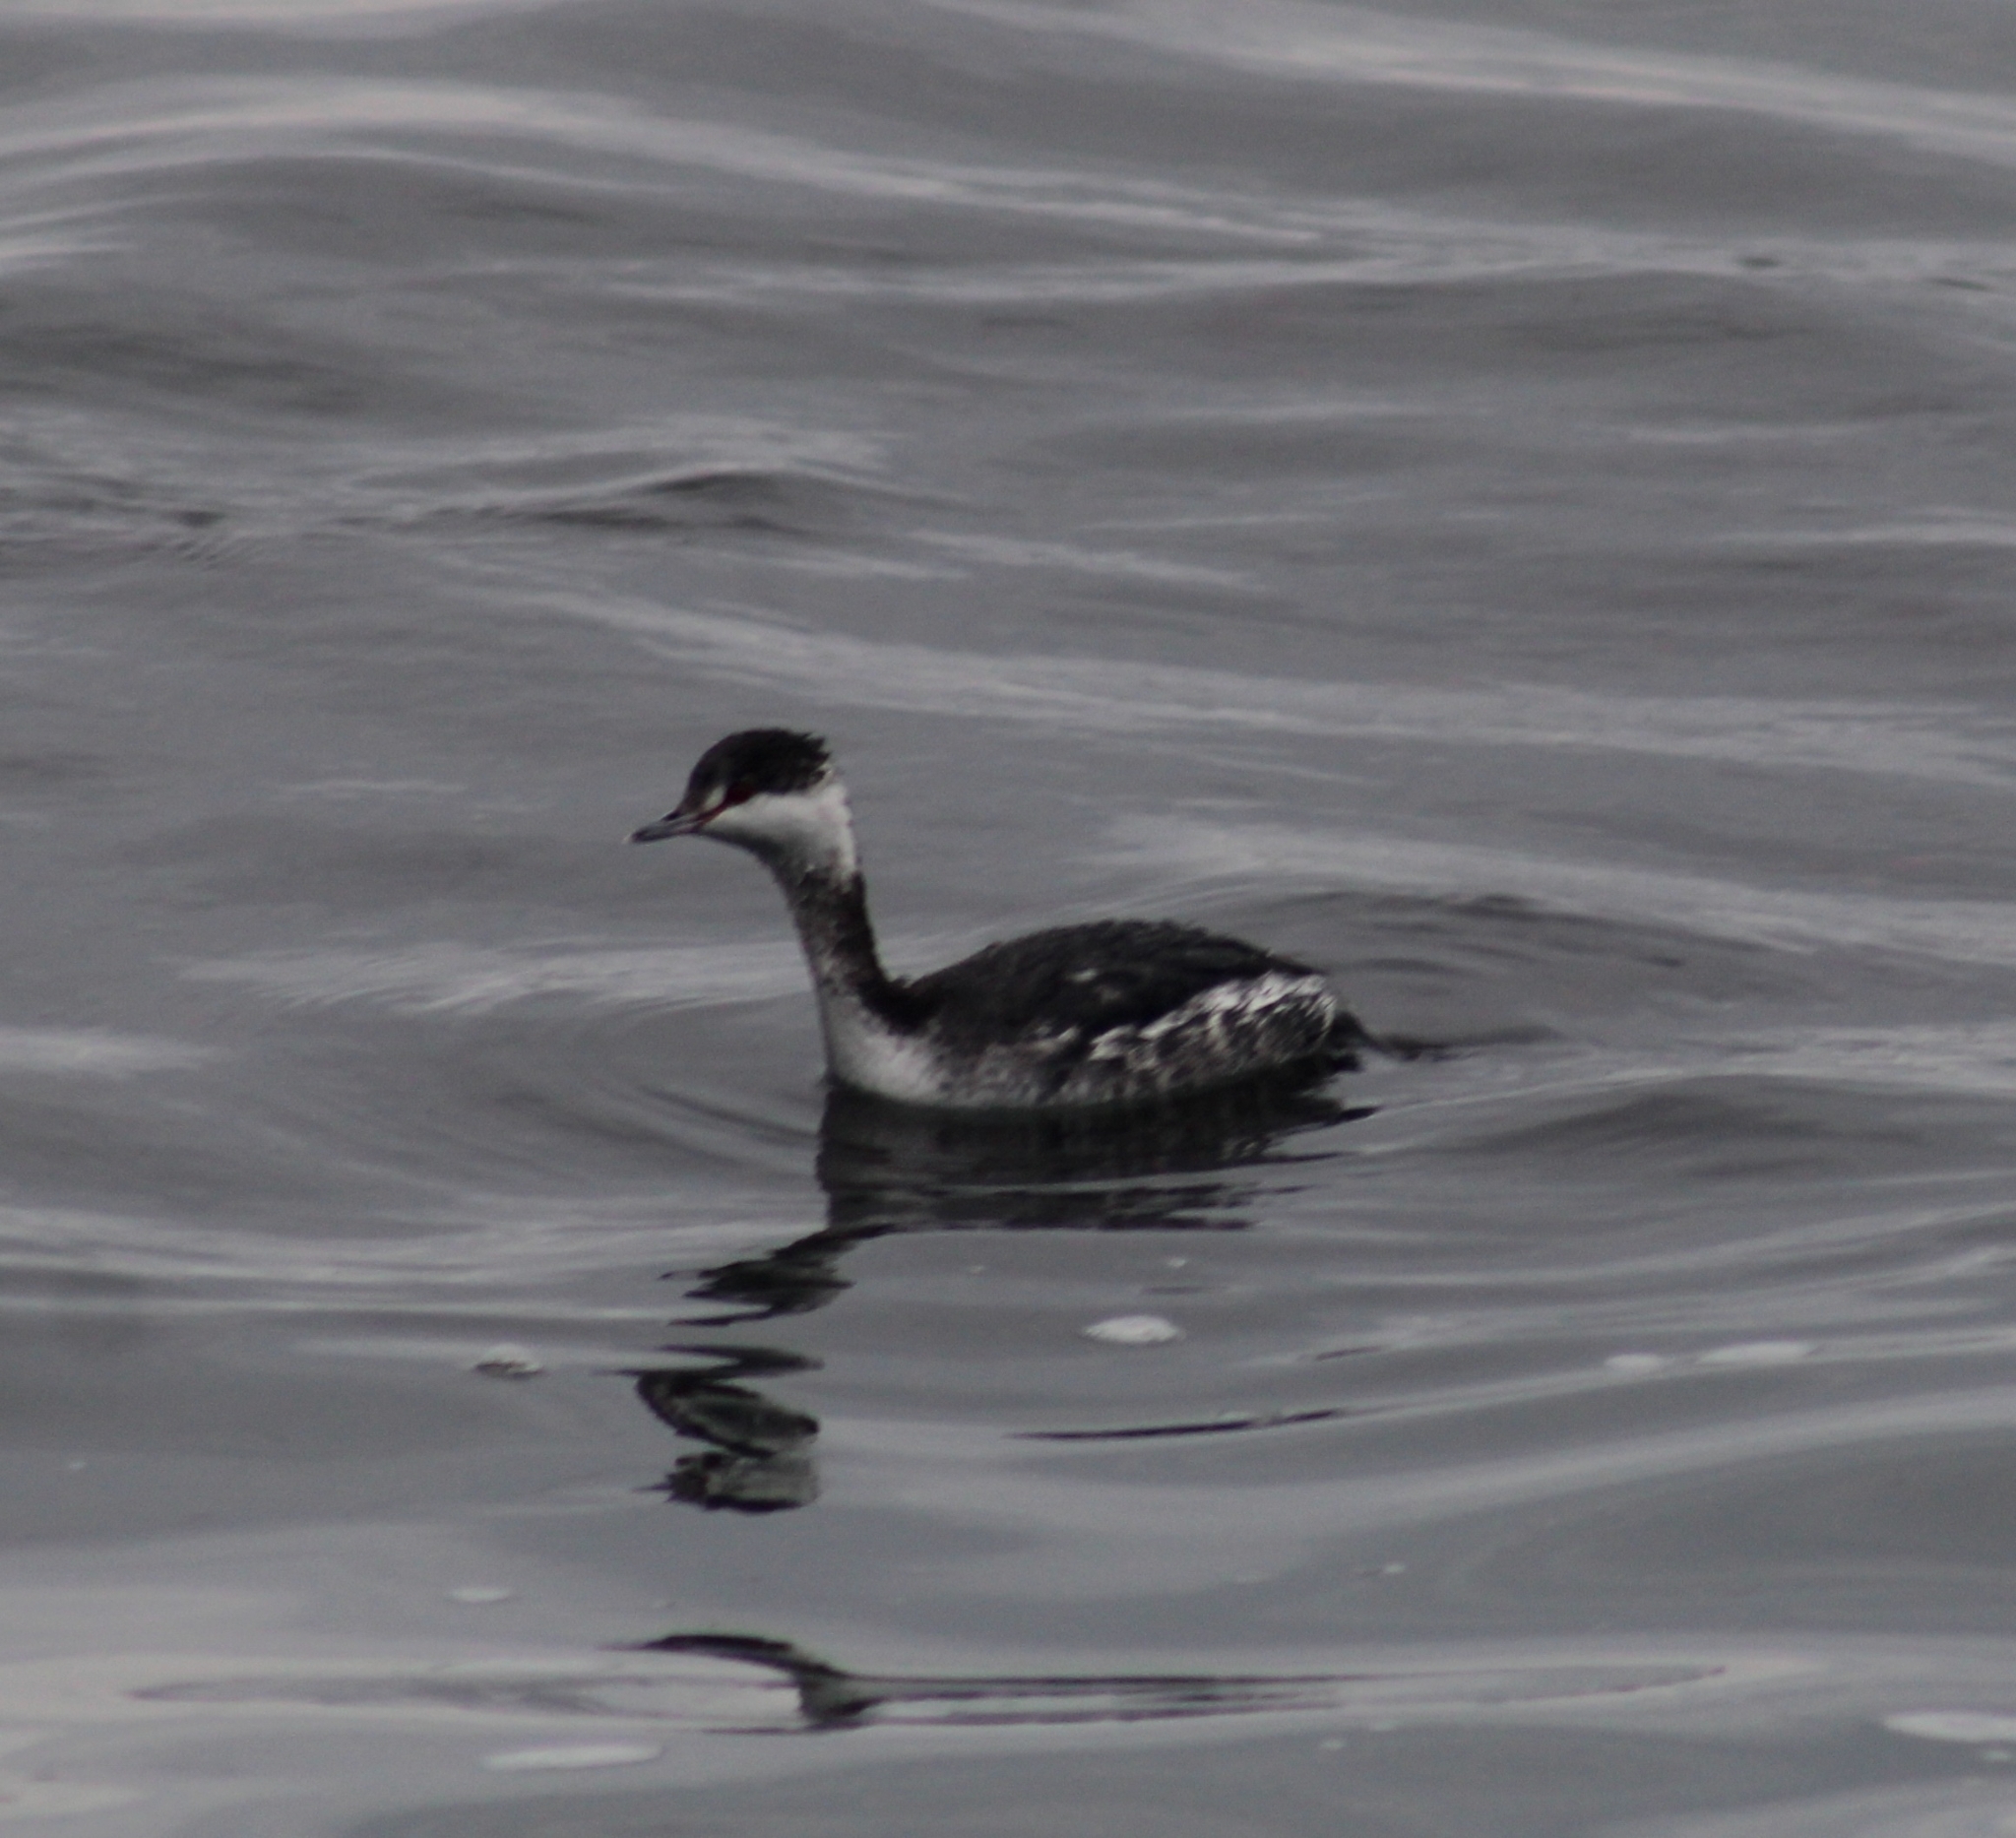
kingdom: Animalia
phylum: Chordata
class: Aves
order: Podicipediformes
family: Podicipedidae
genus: Podiceps
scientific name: Podiceps auritus
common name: Horned grebe
